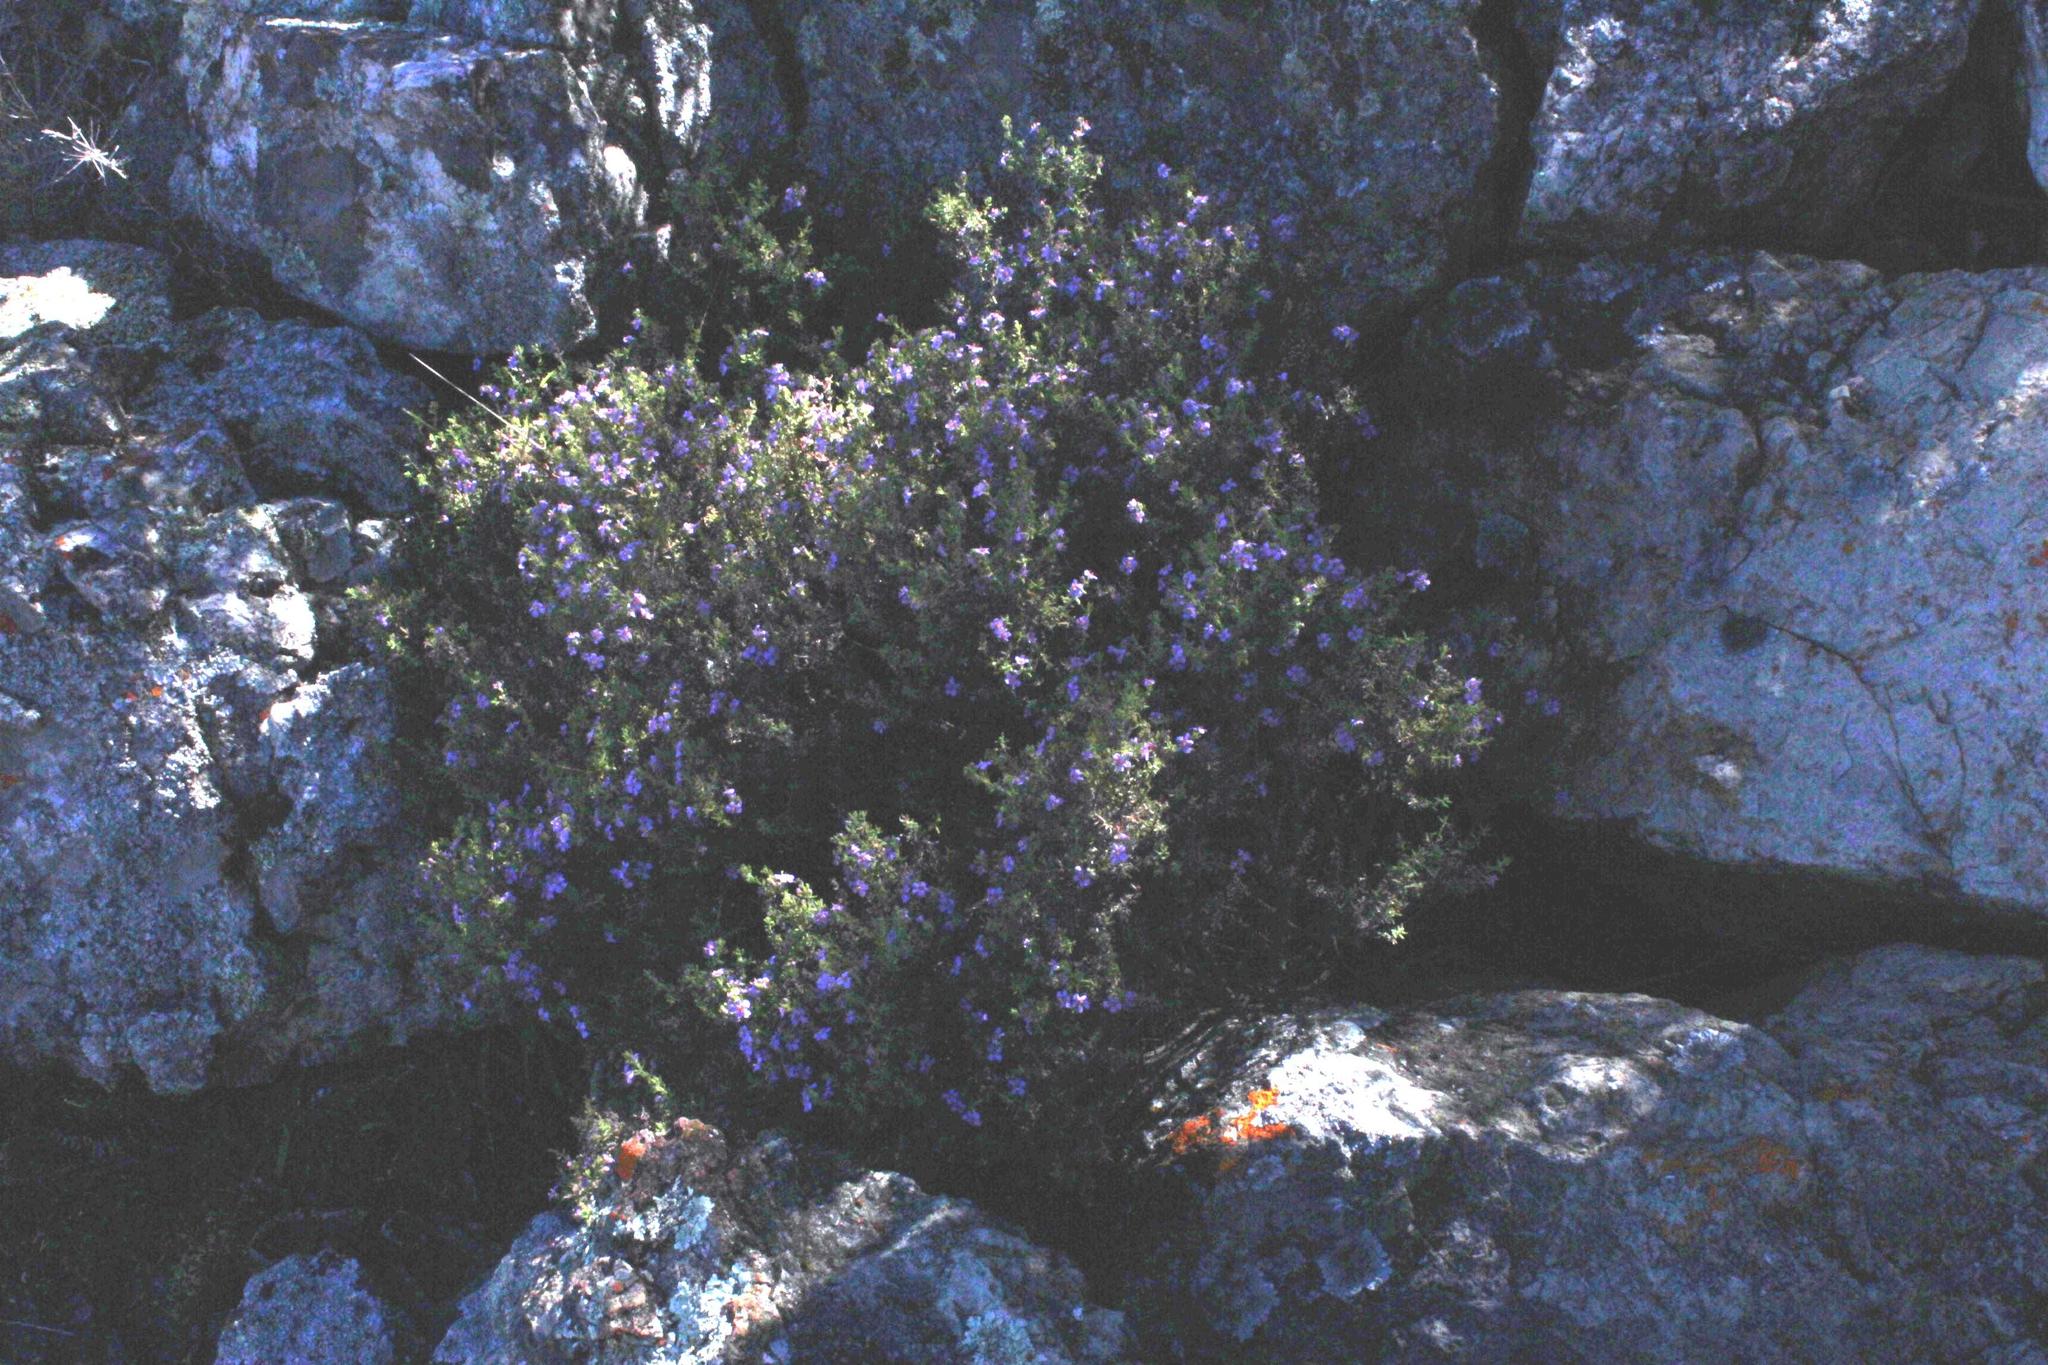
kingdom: Plantae
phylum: Tracheophyta
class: Magnoliopsida
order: Lamiales
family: Scrophulariaceae
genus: Chaenostoma
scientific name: Chaenostoma revolutum
